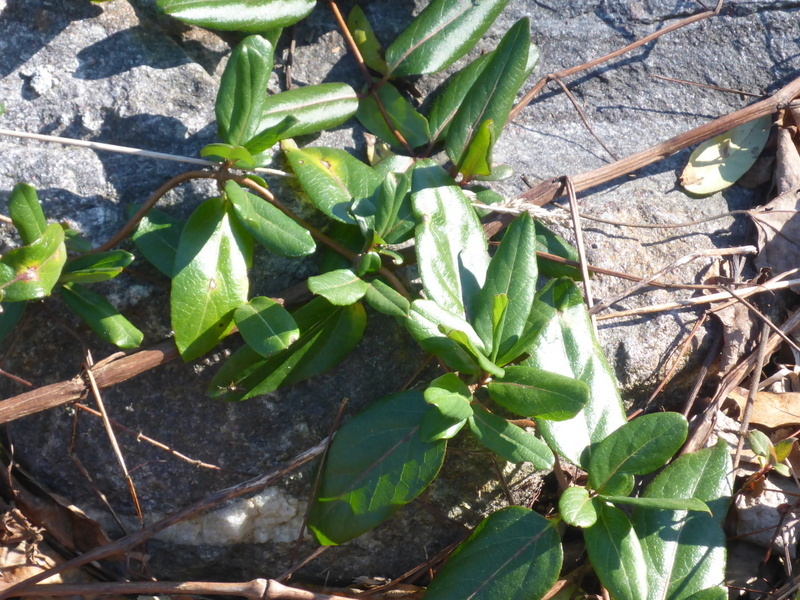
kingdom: Plantae
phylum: Tracheophyta
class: Magnoliopsida
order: Dipsacales
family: Caprifoliaceae
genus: Lonicera
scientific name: Lonicera japonica
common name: Japanese honeysuckle
